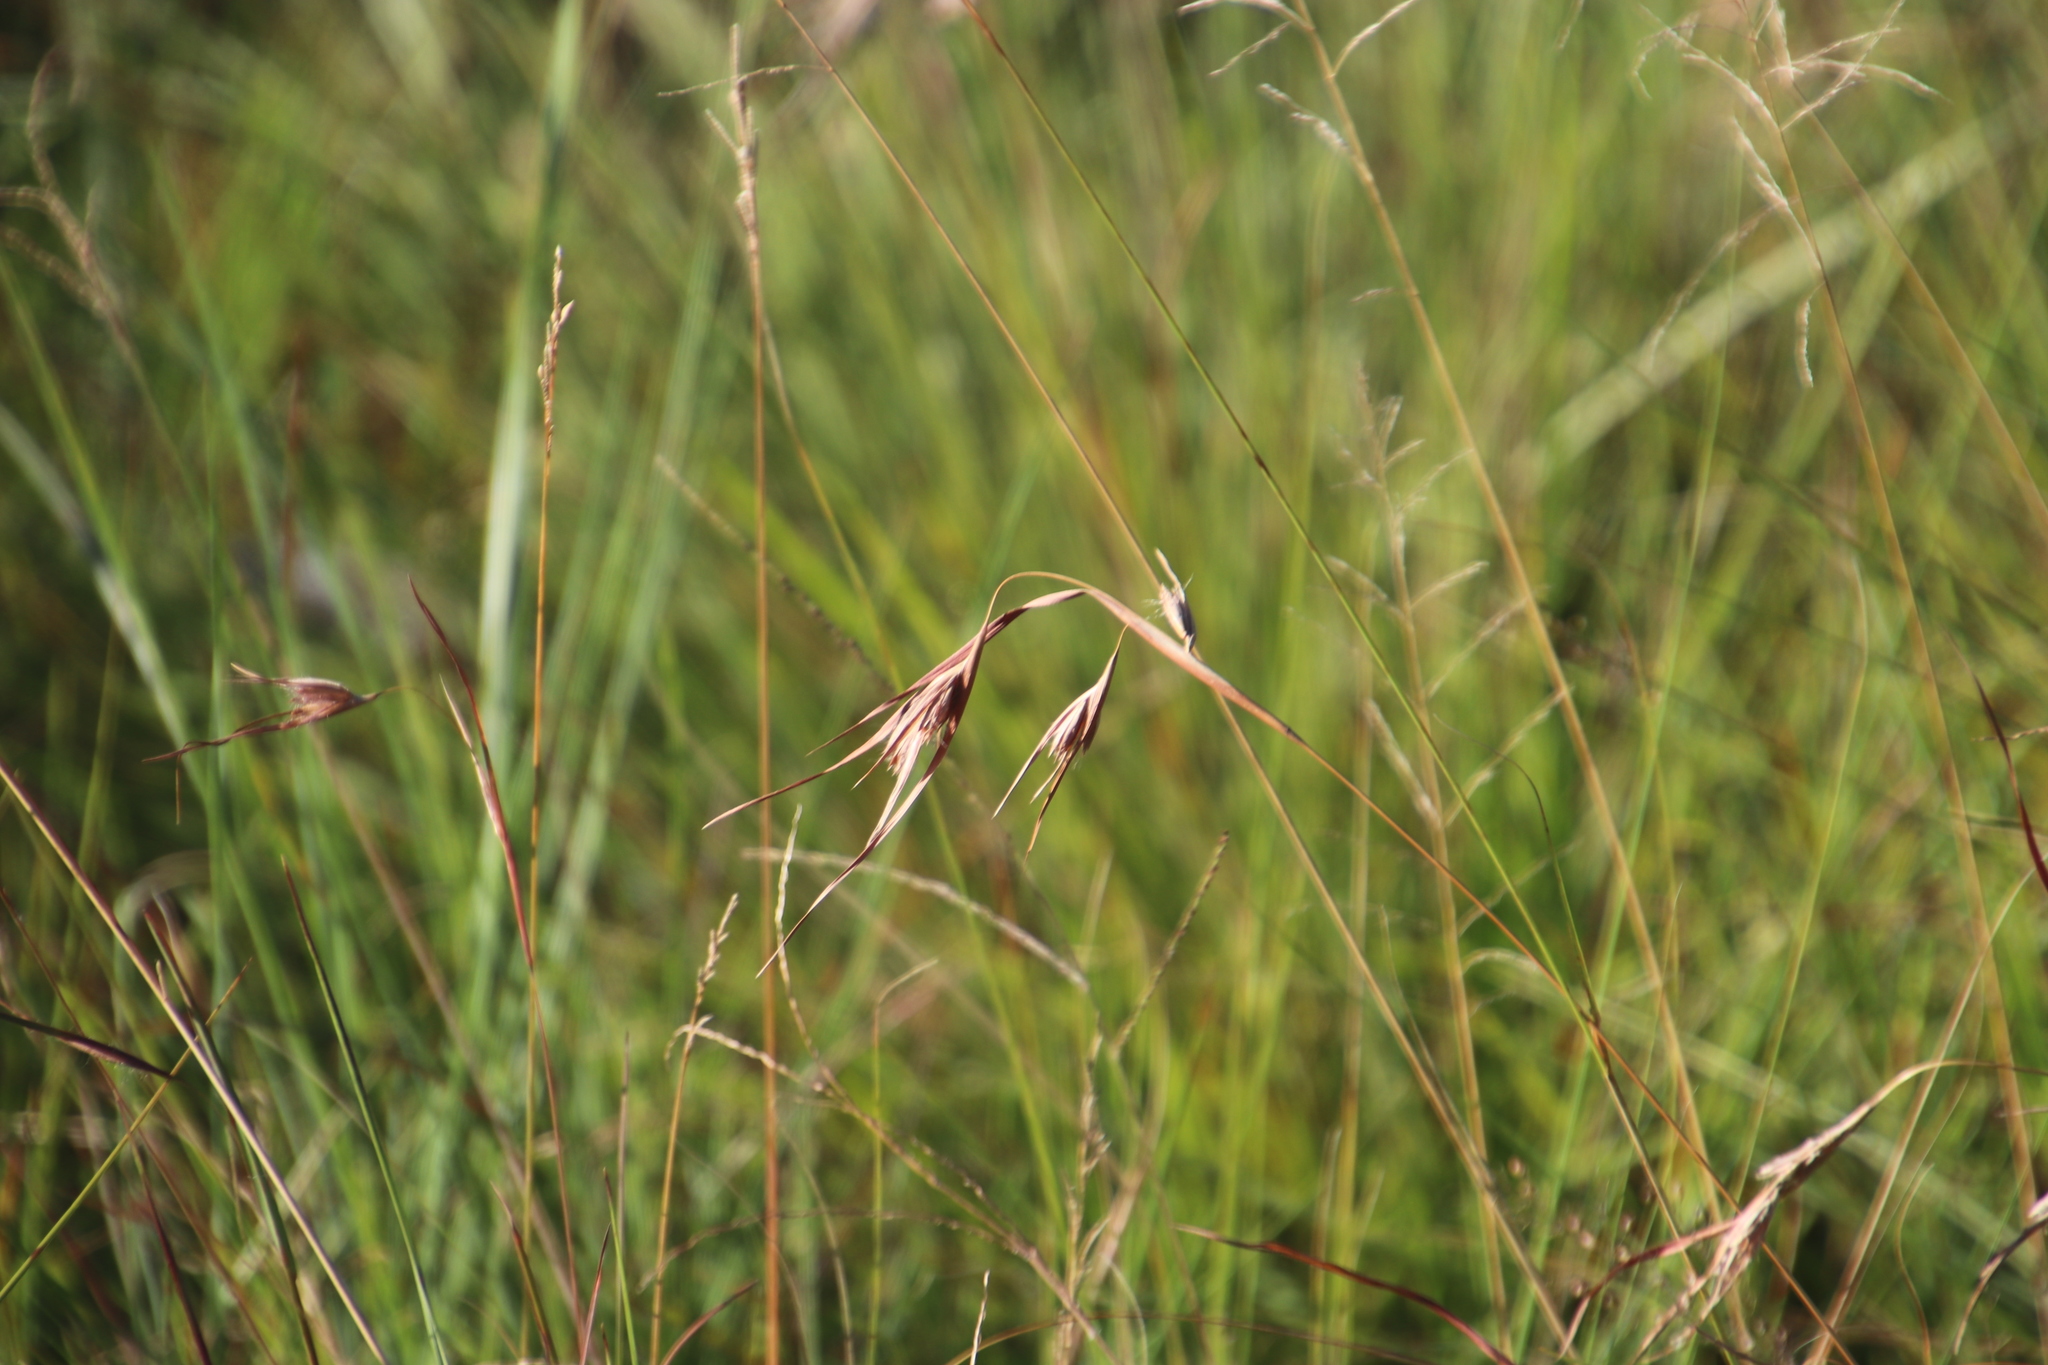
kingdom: Plantae
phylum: Tracheophyta
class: Liliopsida
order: Poales
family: Poaceae
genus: Themeda
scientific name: Themeda triandra
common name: Kangaroo grass
